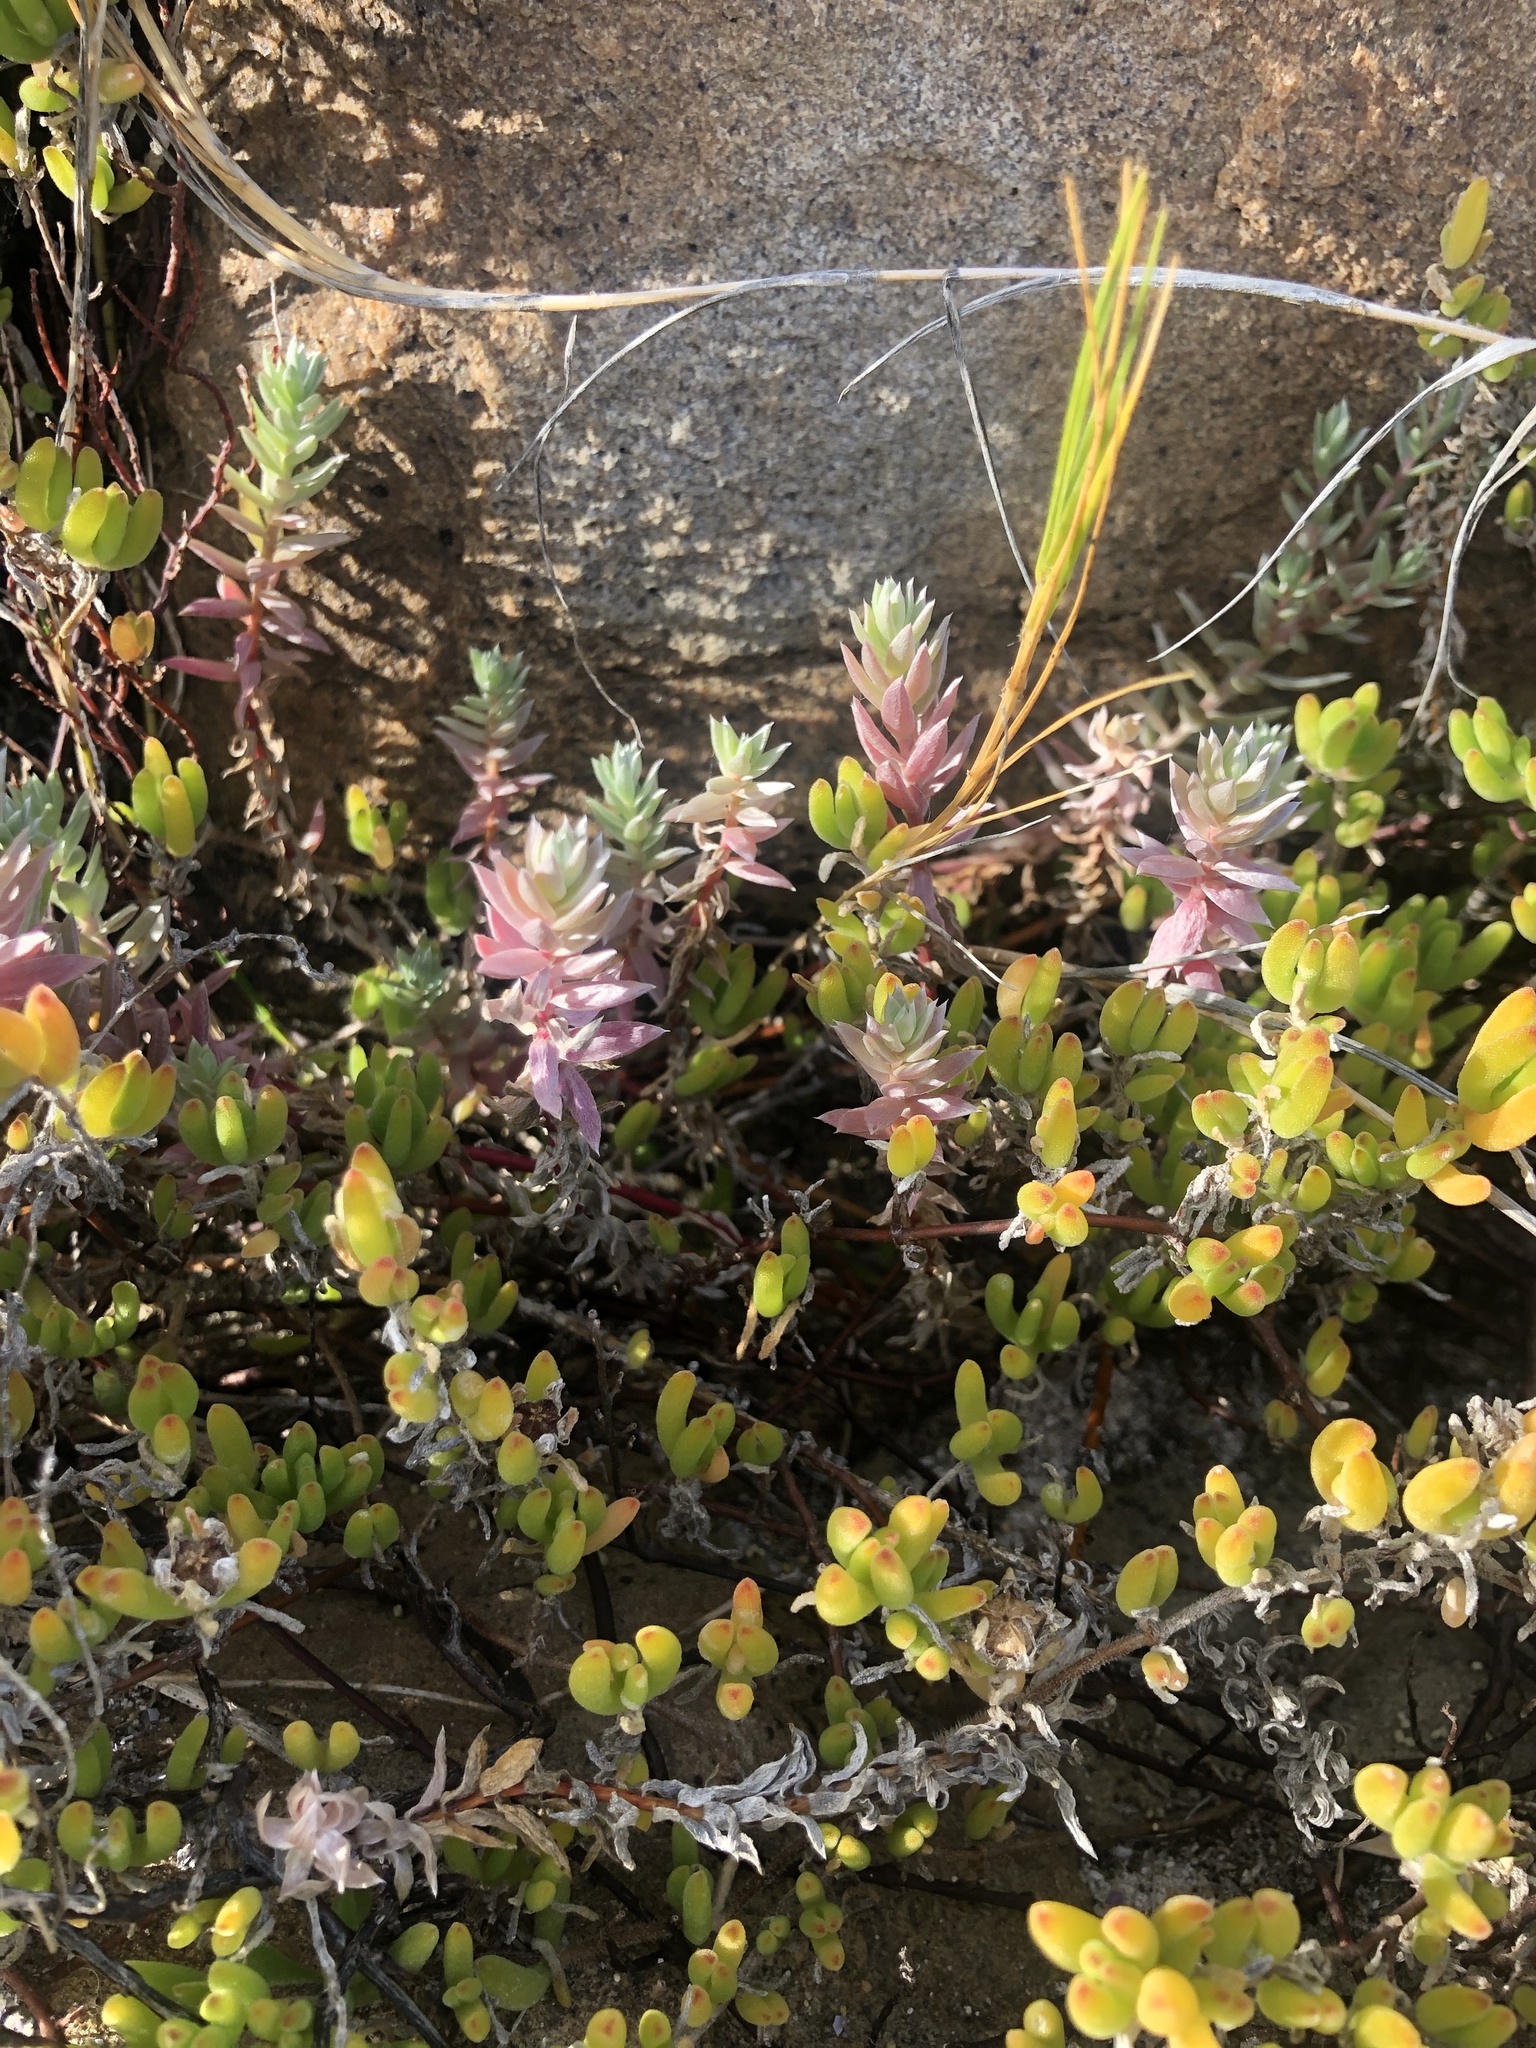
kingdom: Plantae
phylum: Tracheophyta
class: Magnoliopsida
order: Caryophyllales
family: Amaranthaceae
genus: Chenolea
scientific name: Chenolea diffusa
